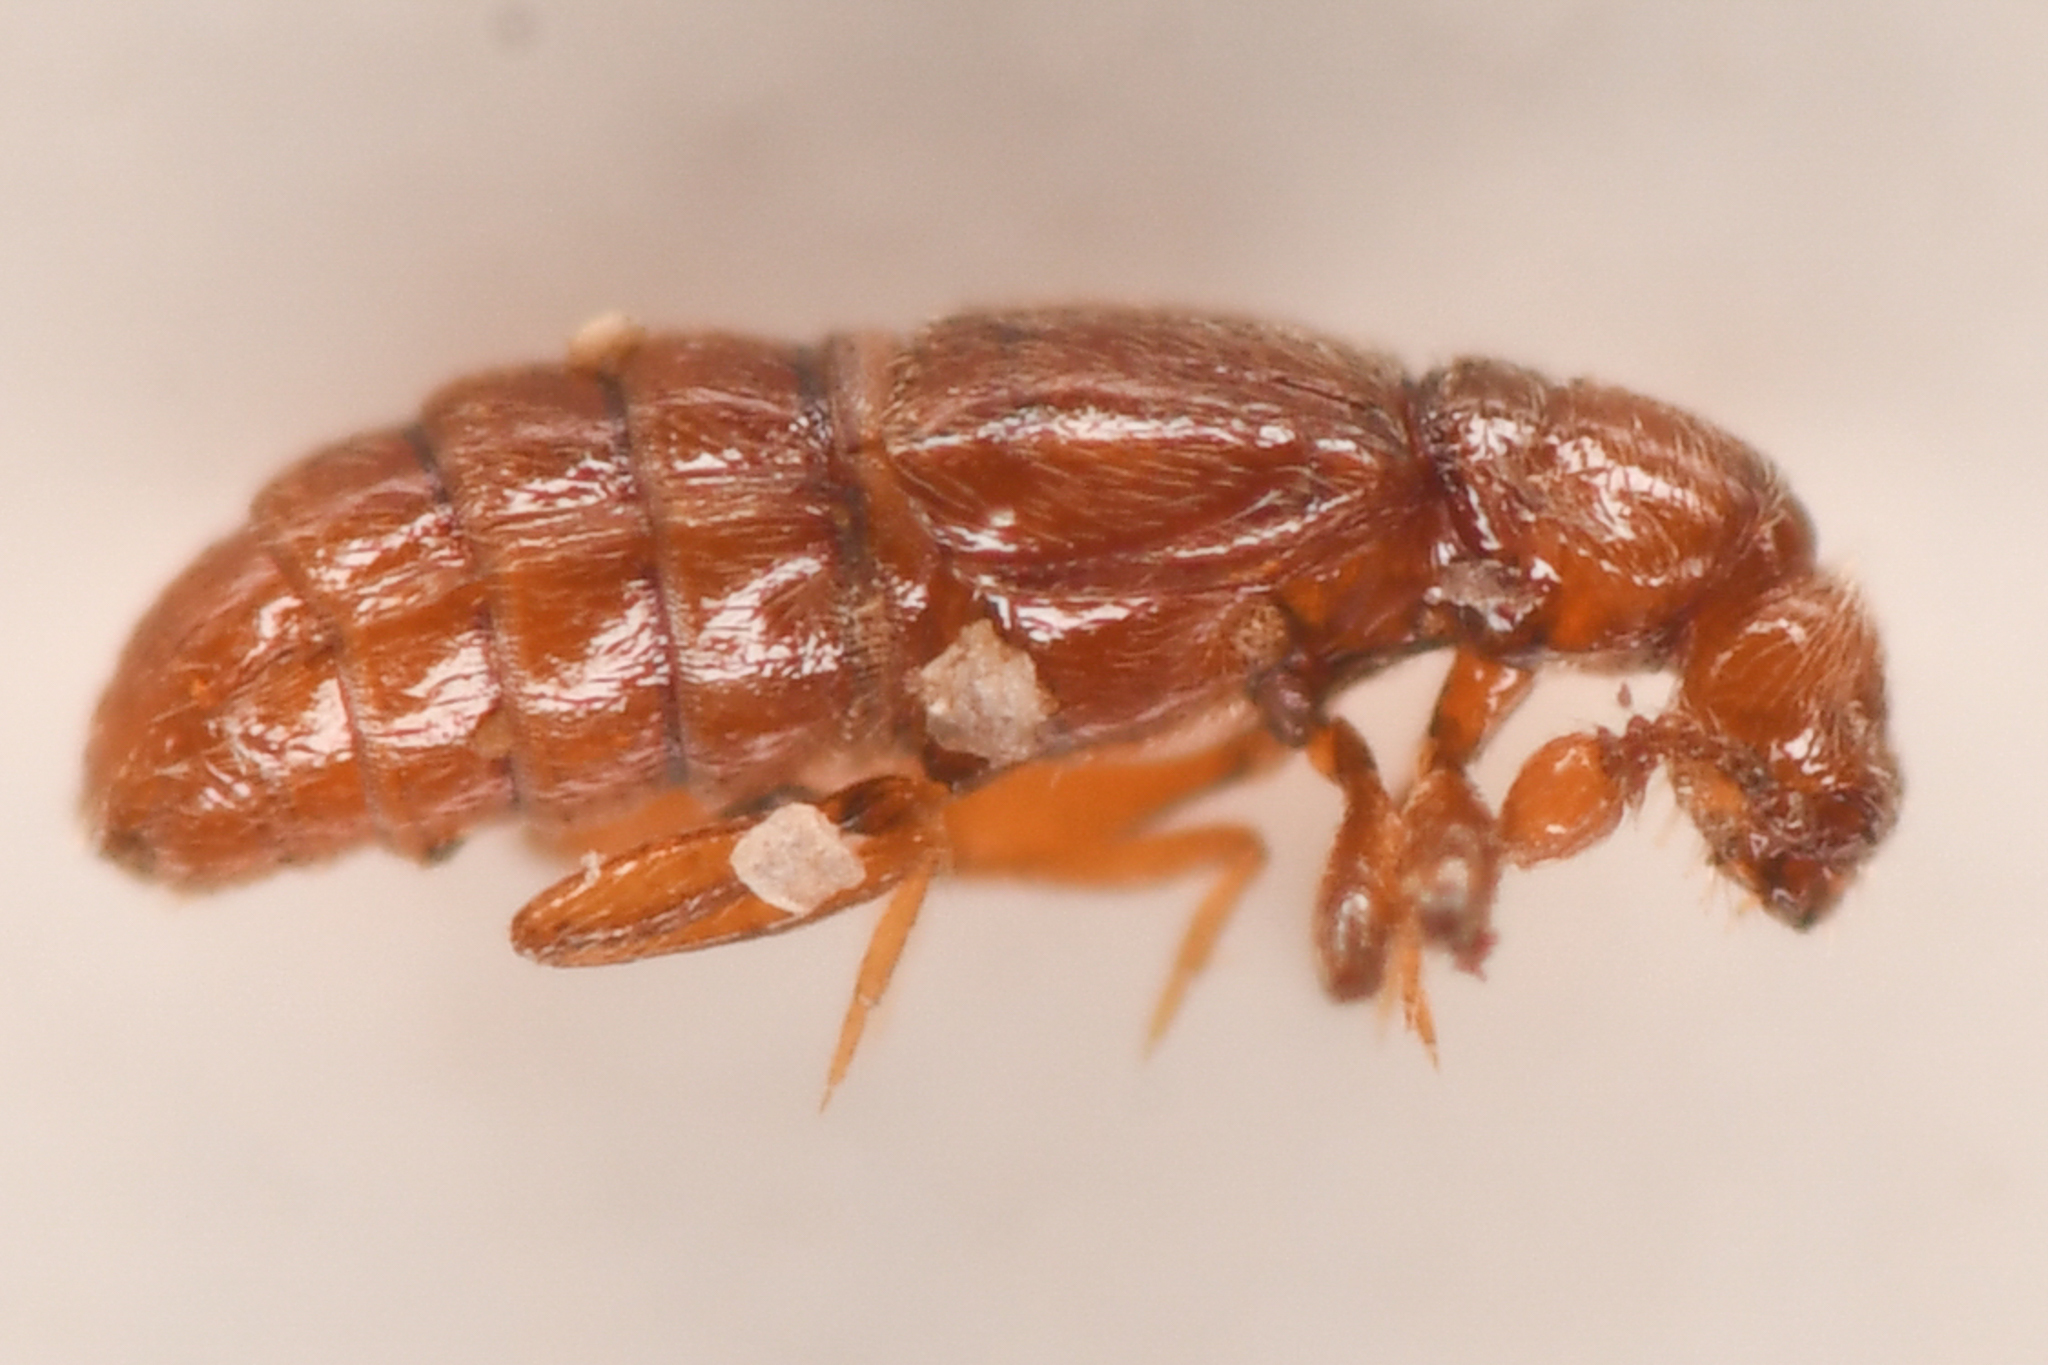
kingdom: Animalia
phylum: Arthropoda
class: Insecta
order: Coleoptera
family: Staphylinidae
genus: Actium
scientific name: Actium barri
